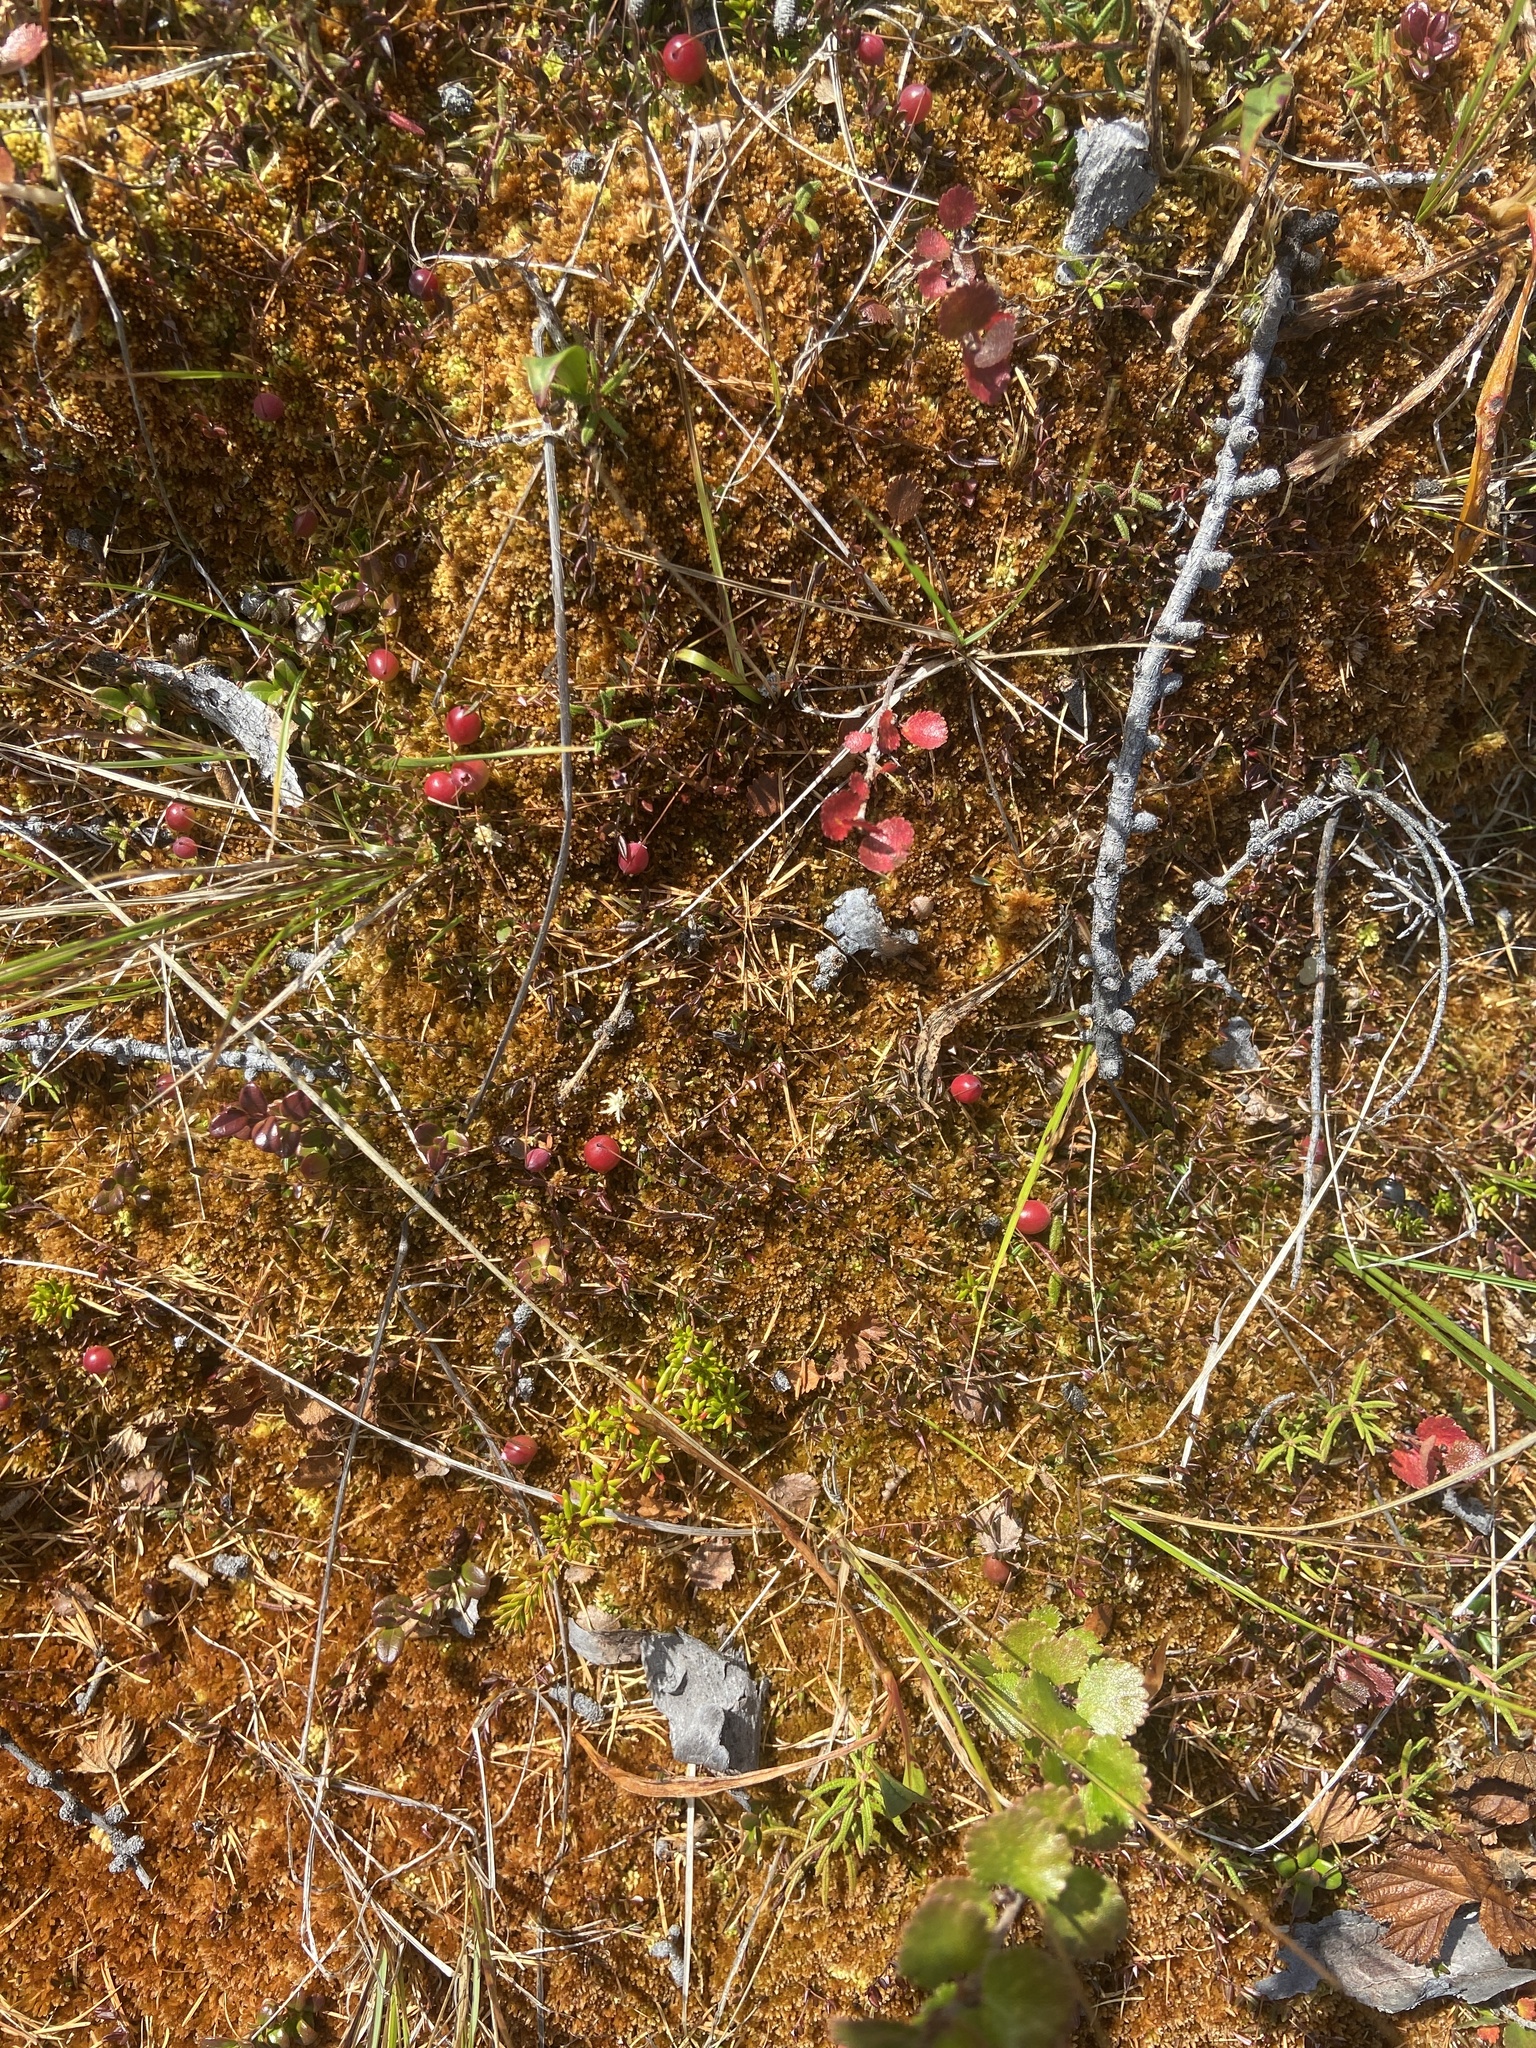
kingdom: Plantae
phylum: Tracheophyta
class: Magnoliopsida
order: Ericales
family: Ericaceae
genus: Vaccinium
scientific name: Vaccinium microcarpum
